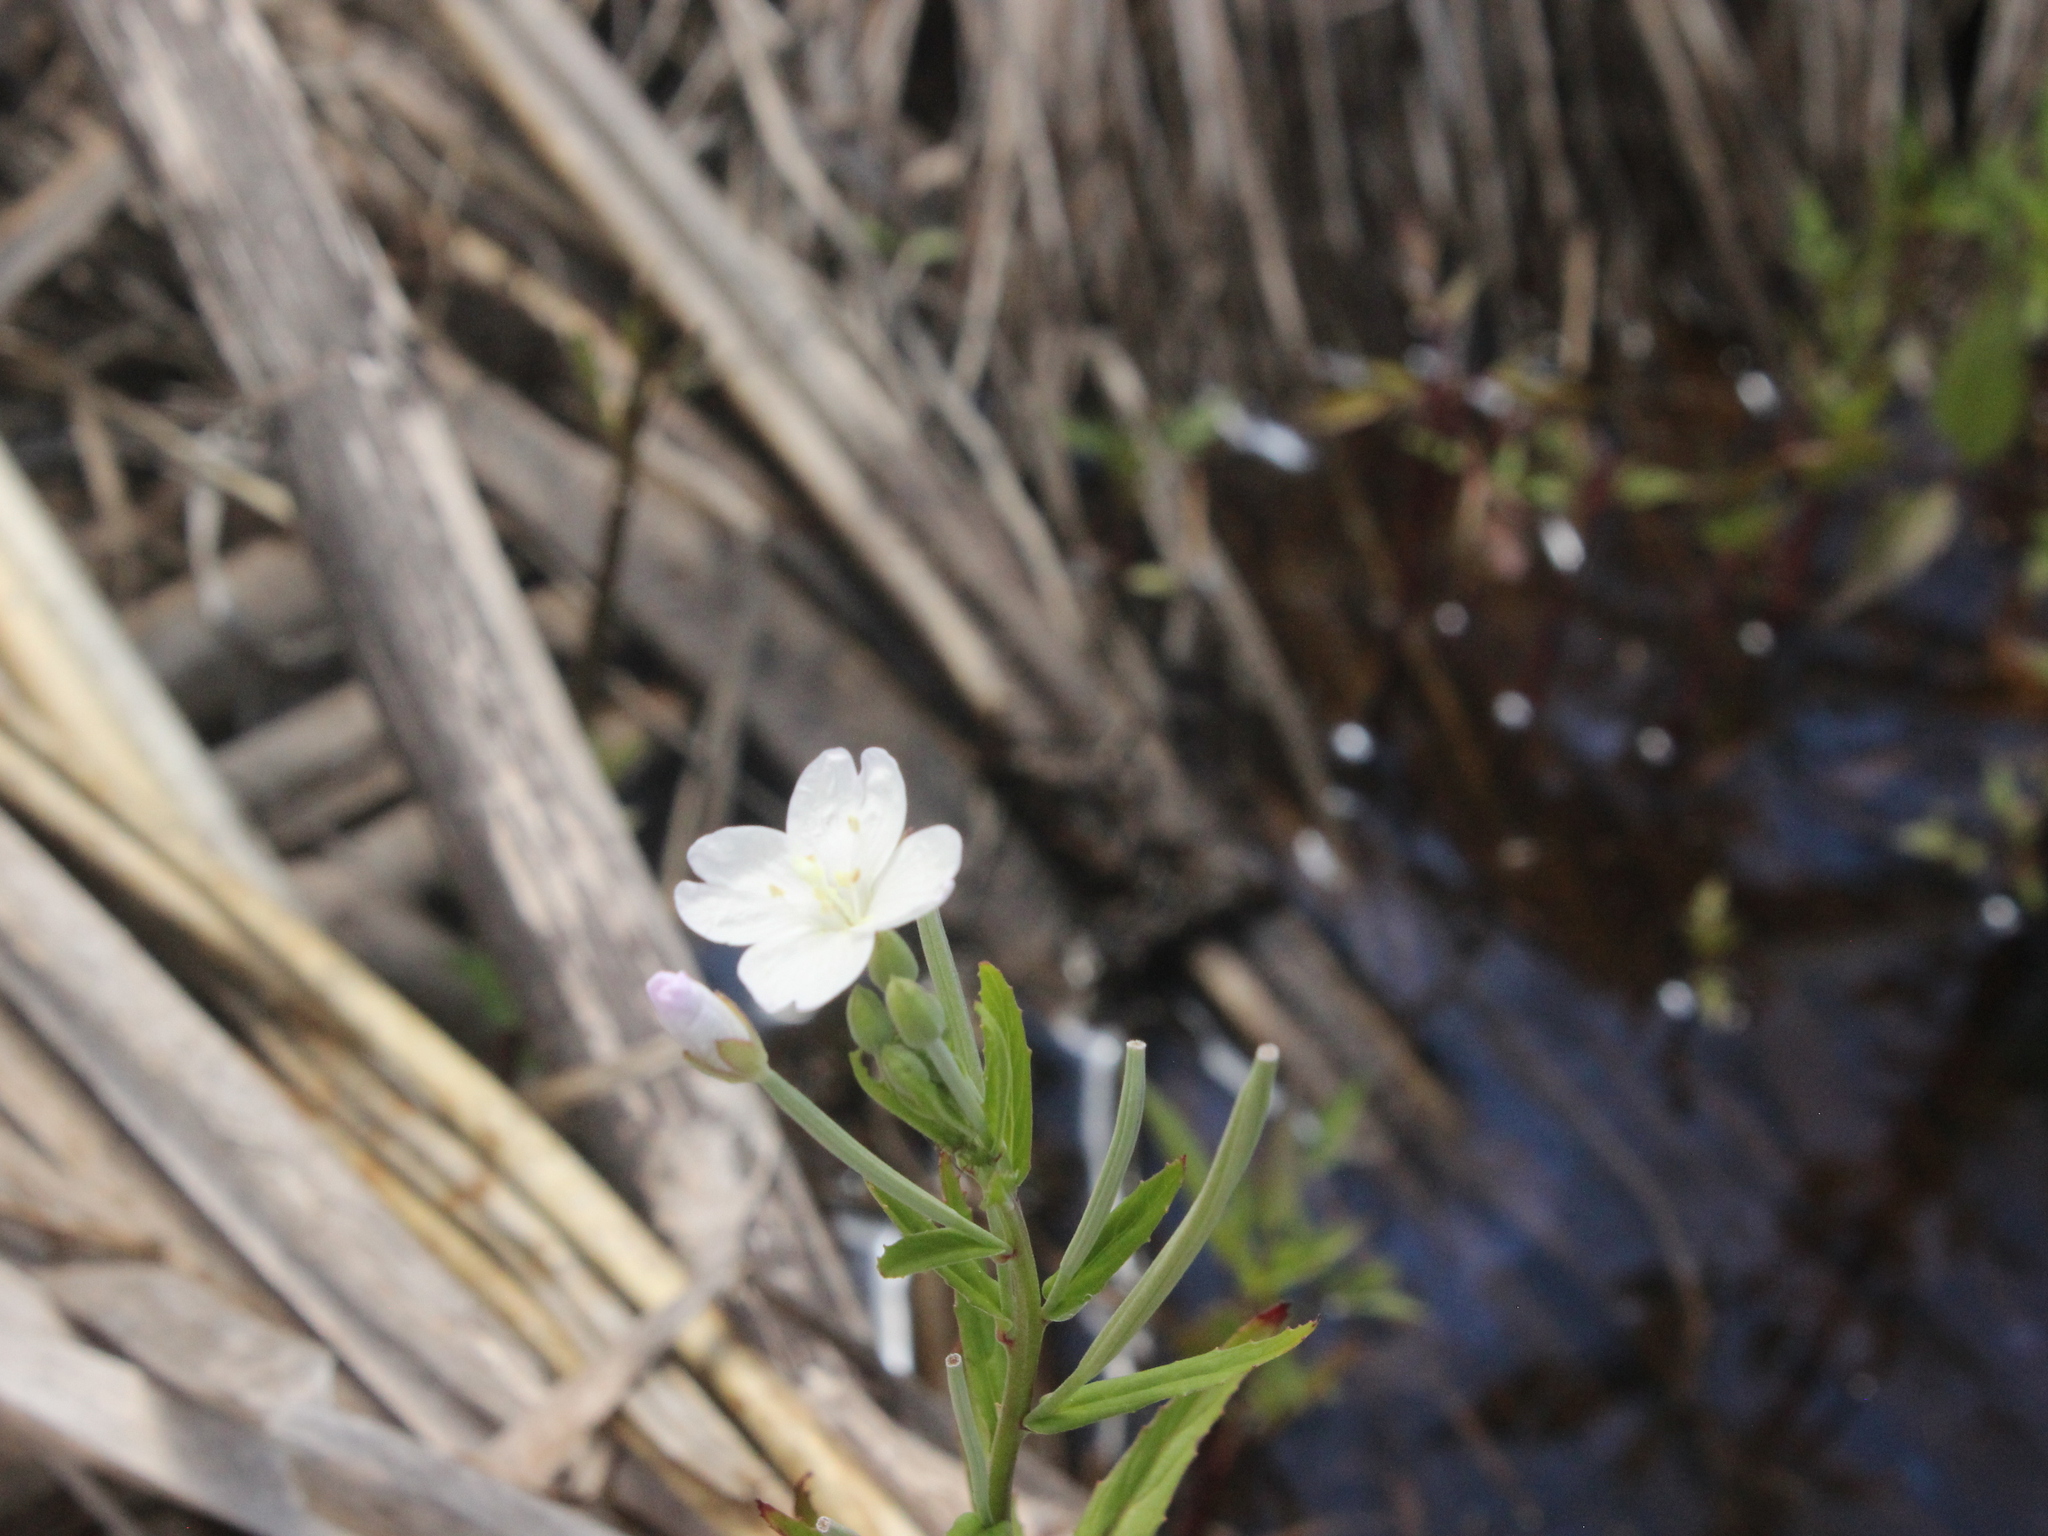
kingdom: Plantae
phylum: Tracheophyta
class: Magnoliopsida
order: Myrtales
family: Onagraceae
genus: Epilobium
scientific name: Epilobium pallidiflorum
